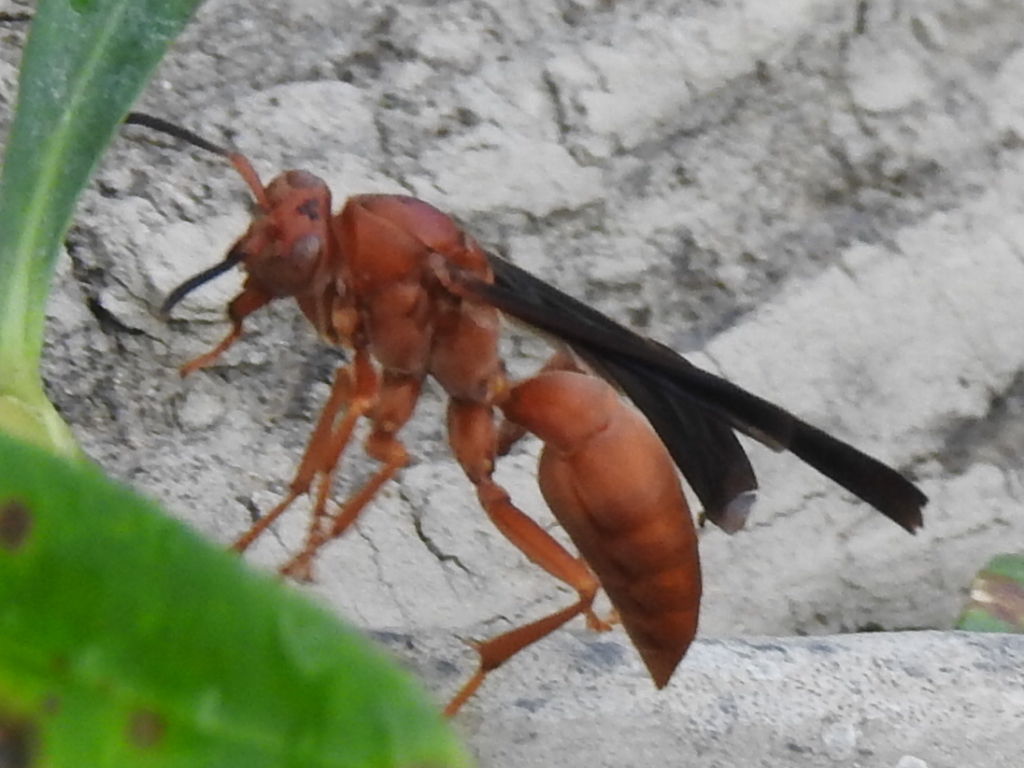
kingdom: Animalia
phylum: Arthropoda
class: Insecta
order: Hymenoptera
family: Vespidae
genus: Fuscopolistes
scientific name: Fuscopolistes
